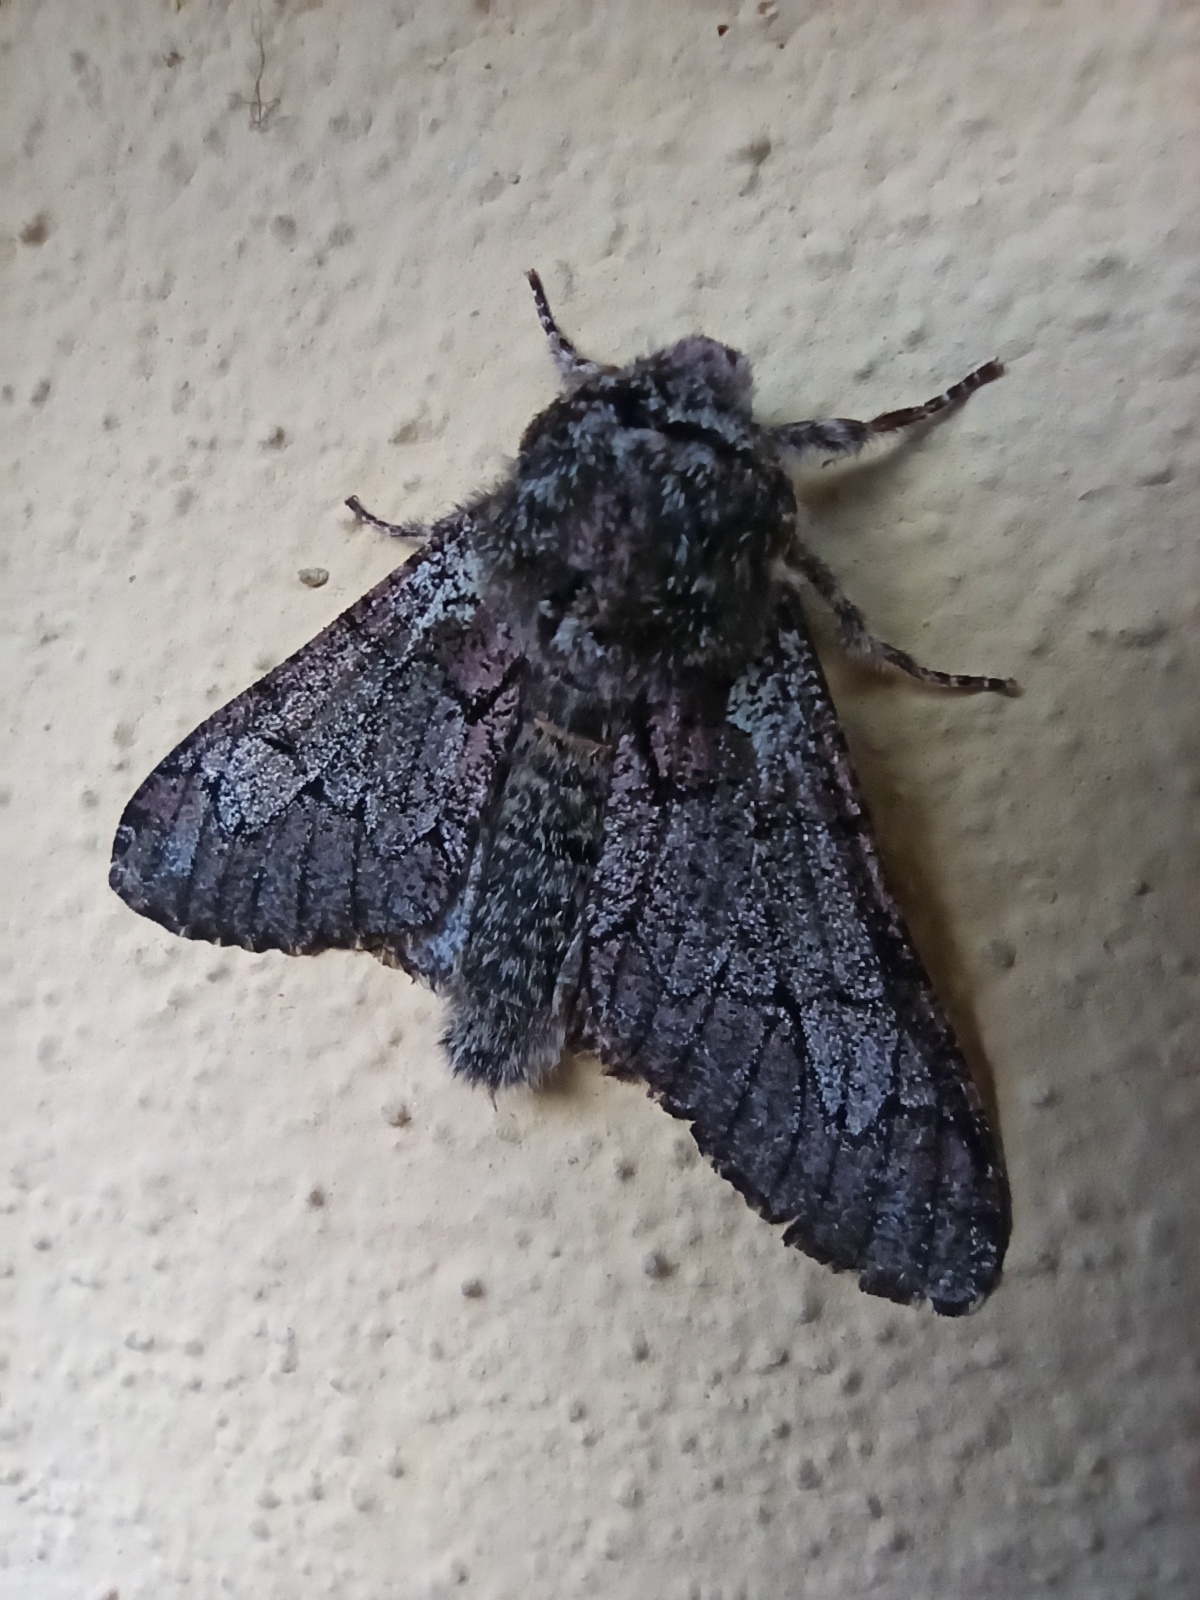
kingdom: Animalia
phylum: Arthropoda
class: Insecta
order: Lepidoptera
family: Geometridae
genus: Biston
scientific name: Biston strataria
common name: Oak beauty
